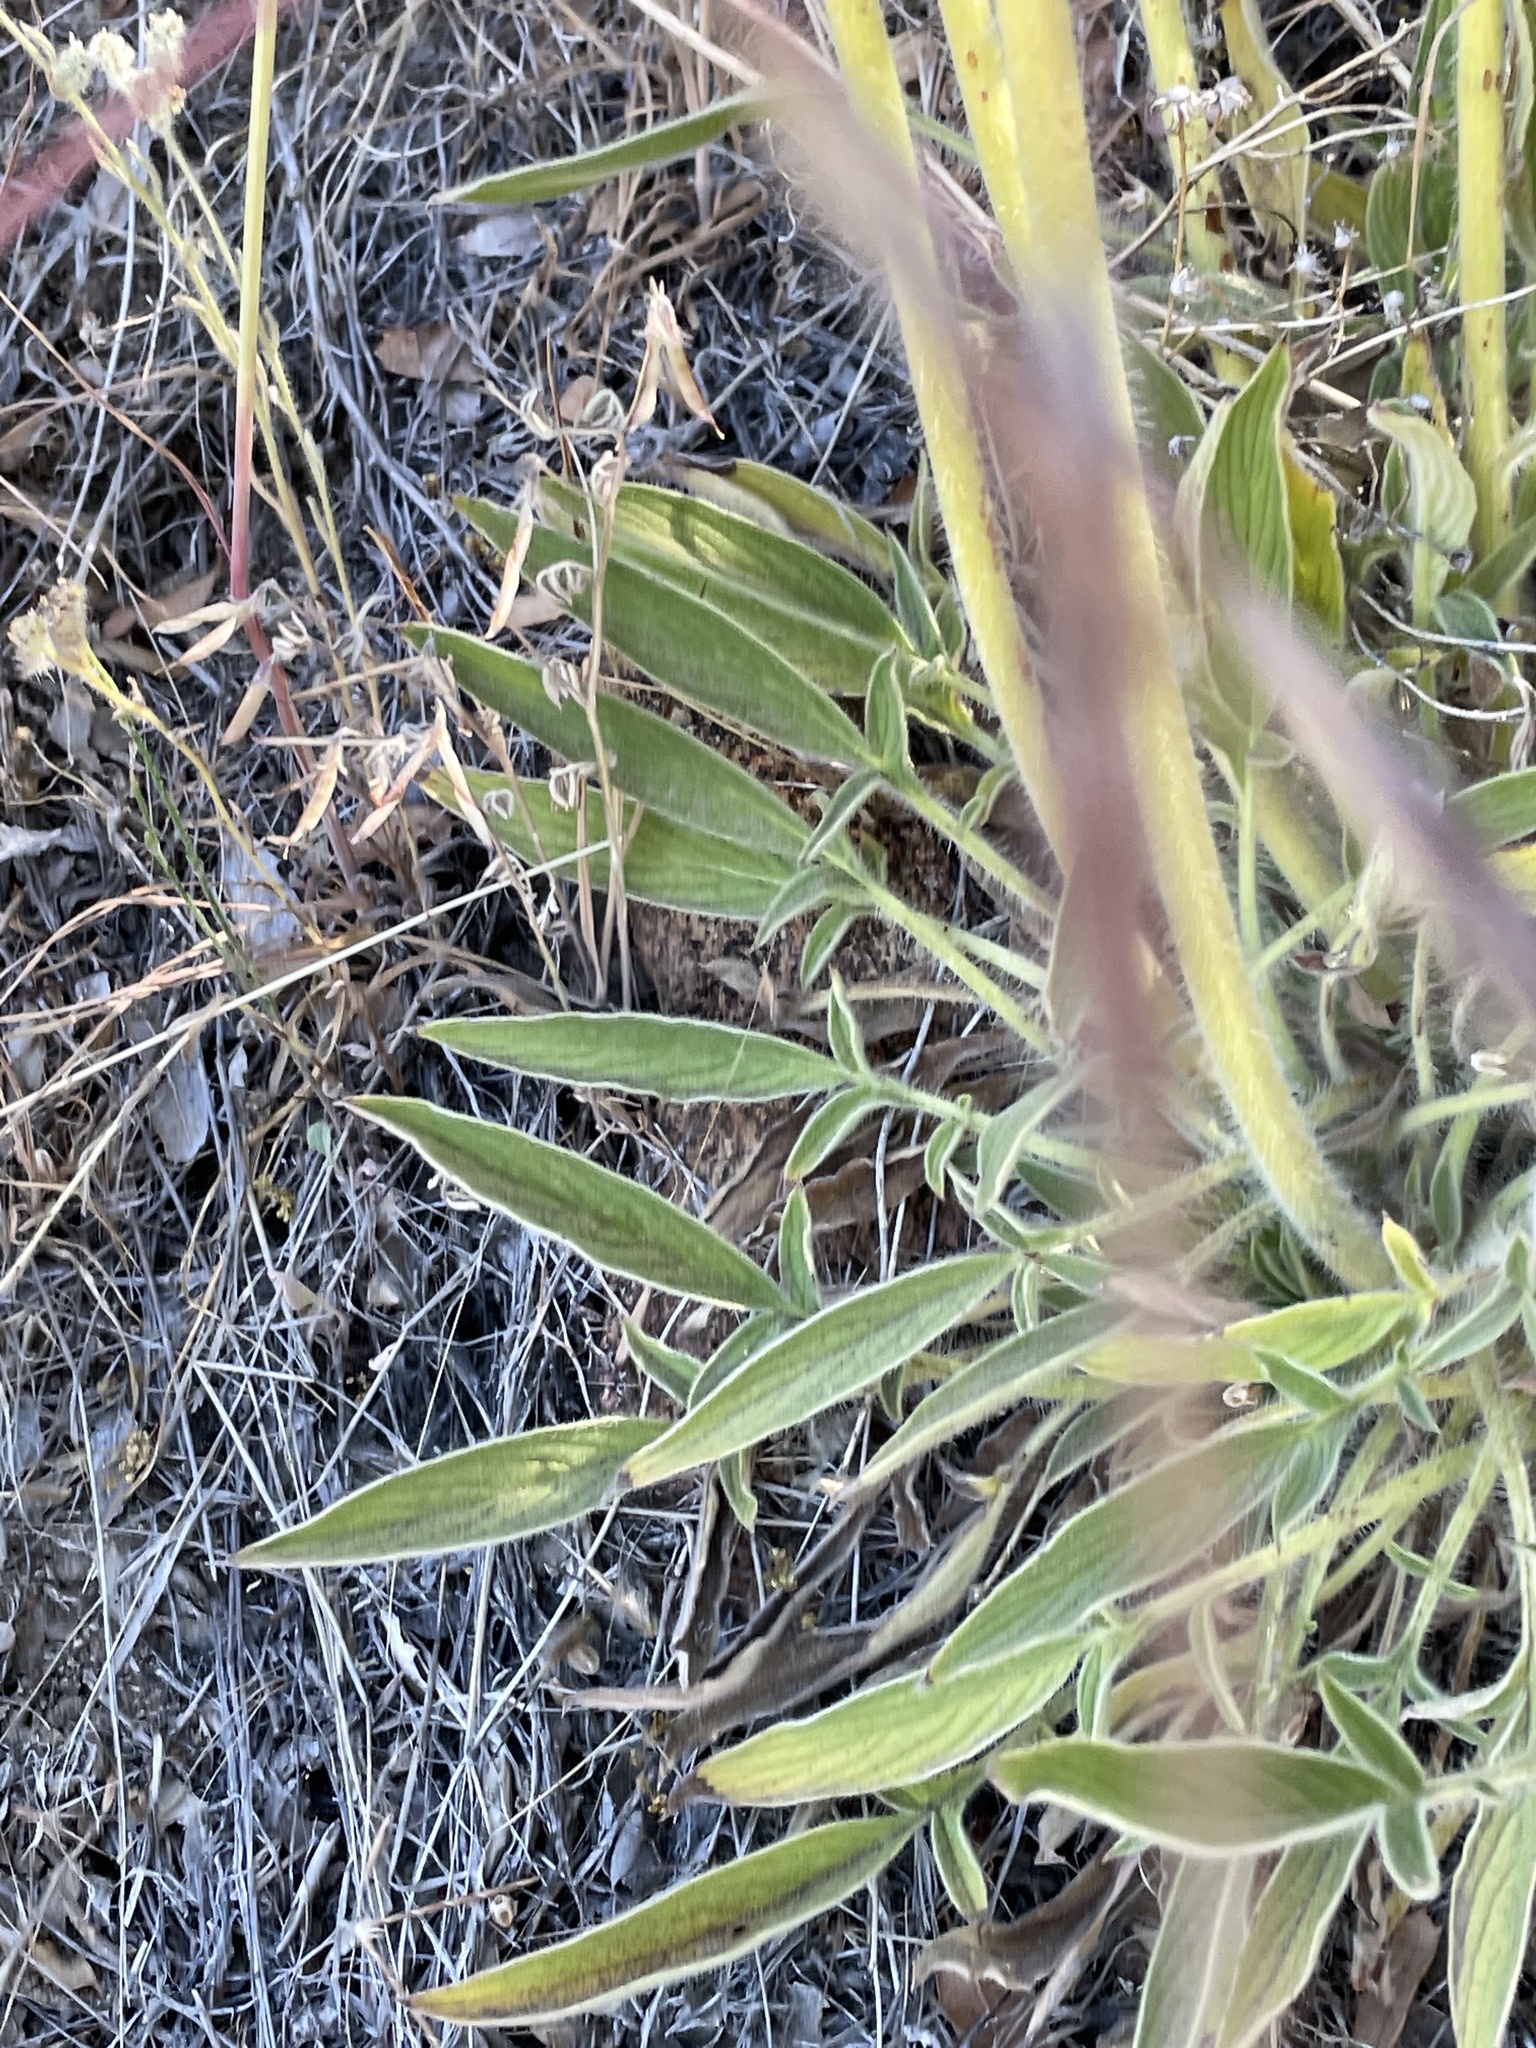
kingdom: Plantae
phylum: Tracheophyta
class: Magnoliopsida
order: Boraginales
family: Hydrophyllaceae
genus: Phacelia
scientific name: Phacelia imbricata
